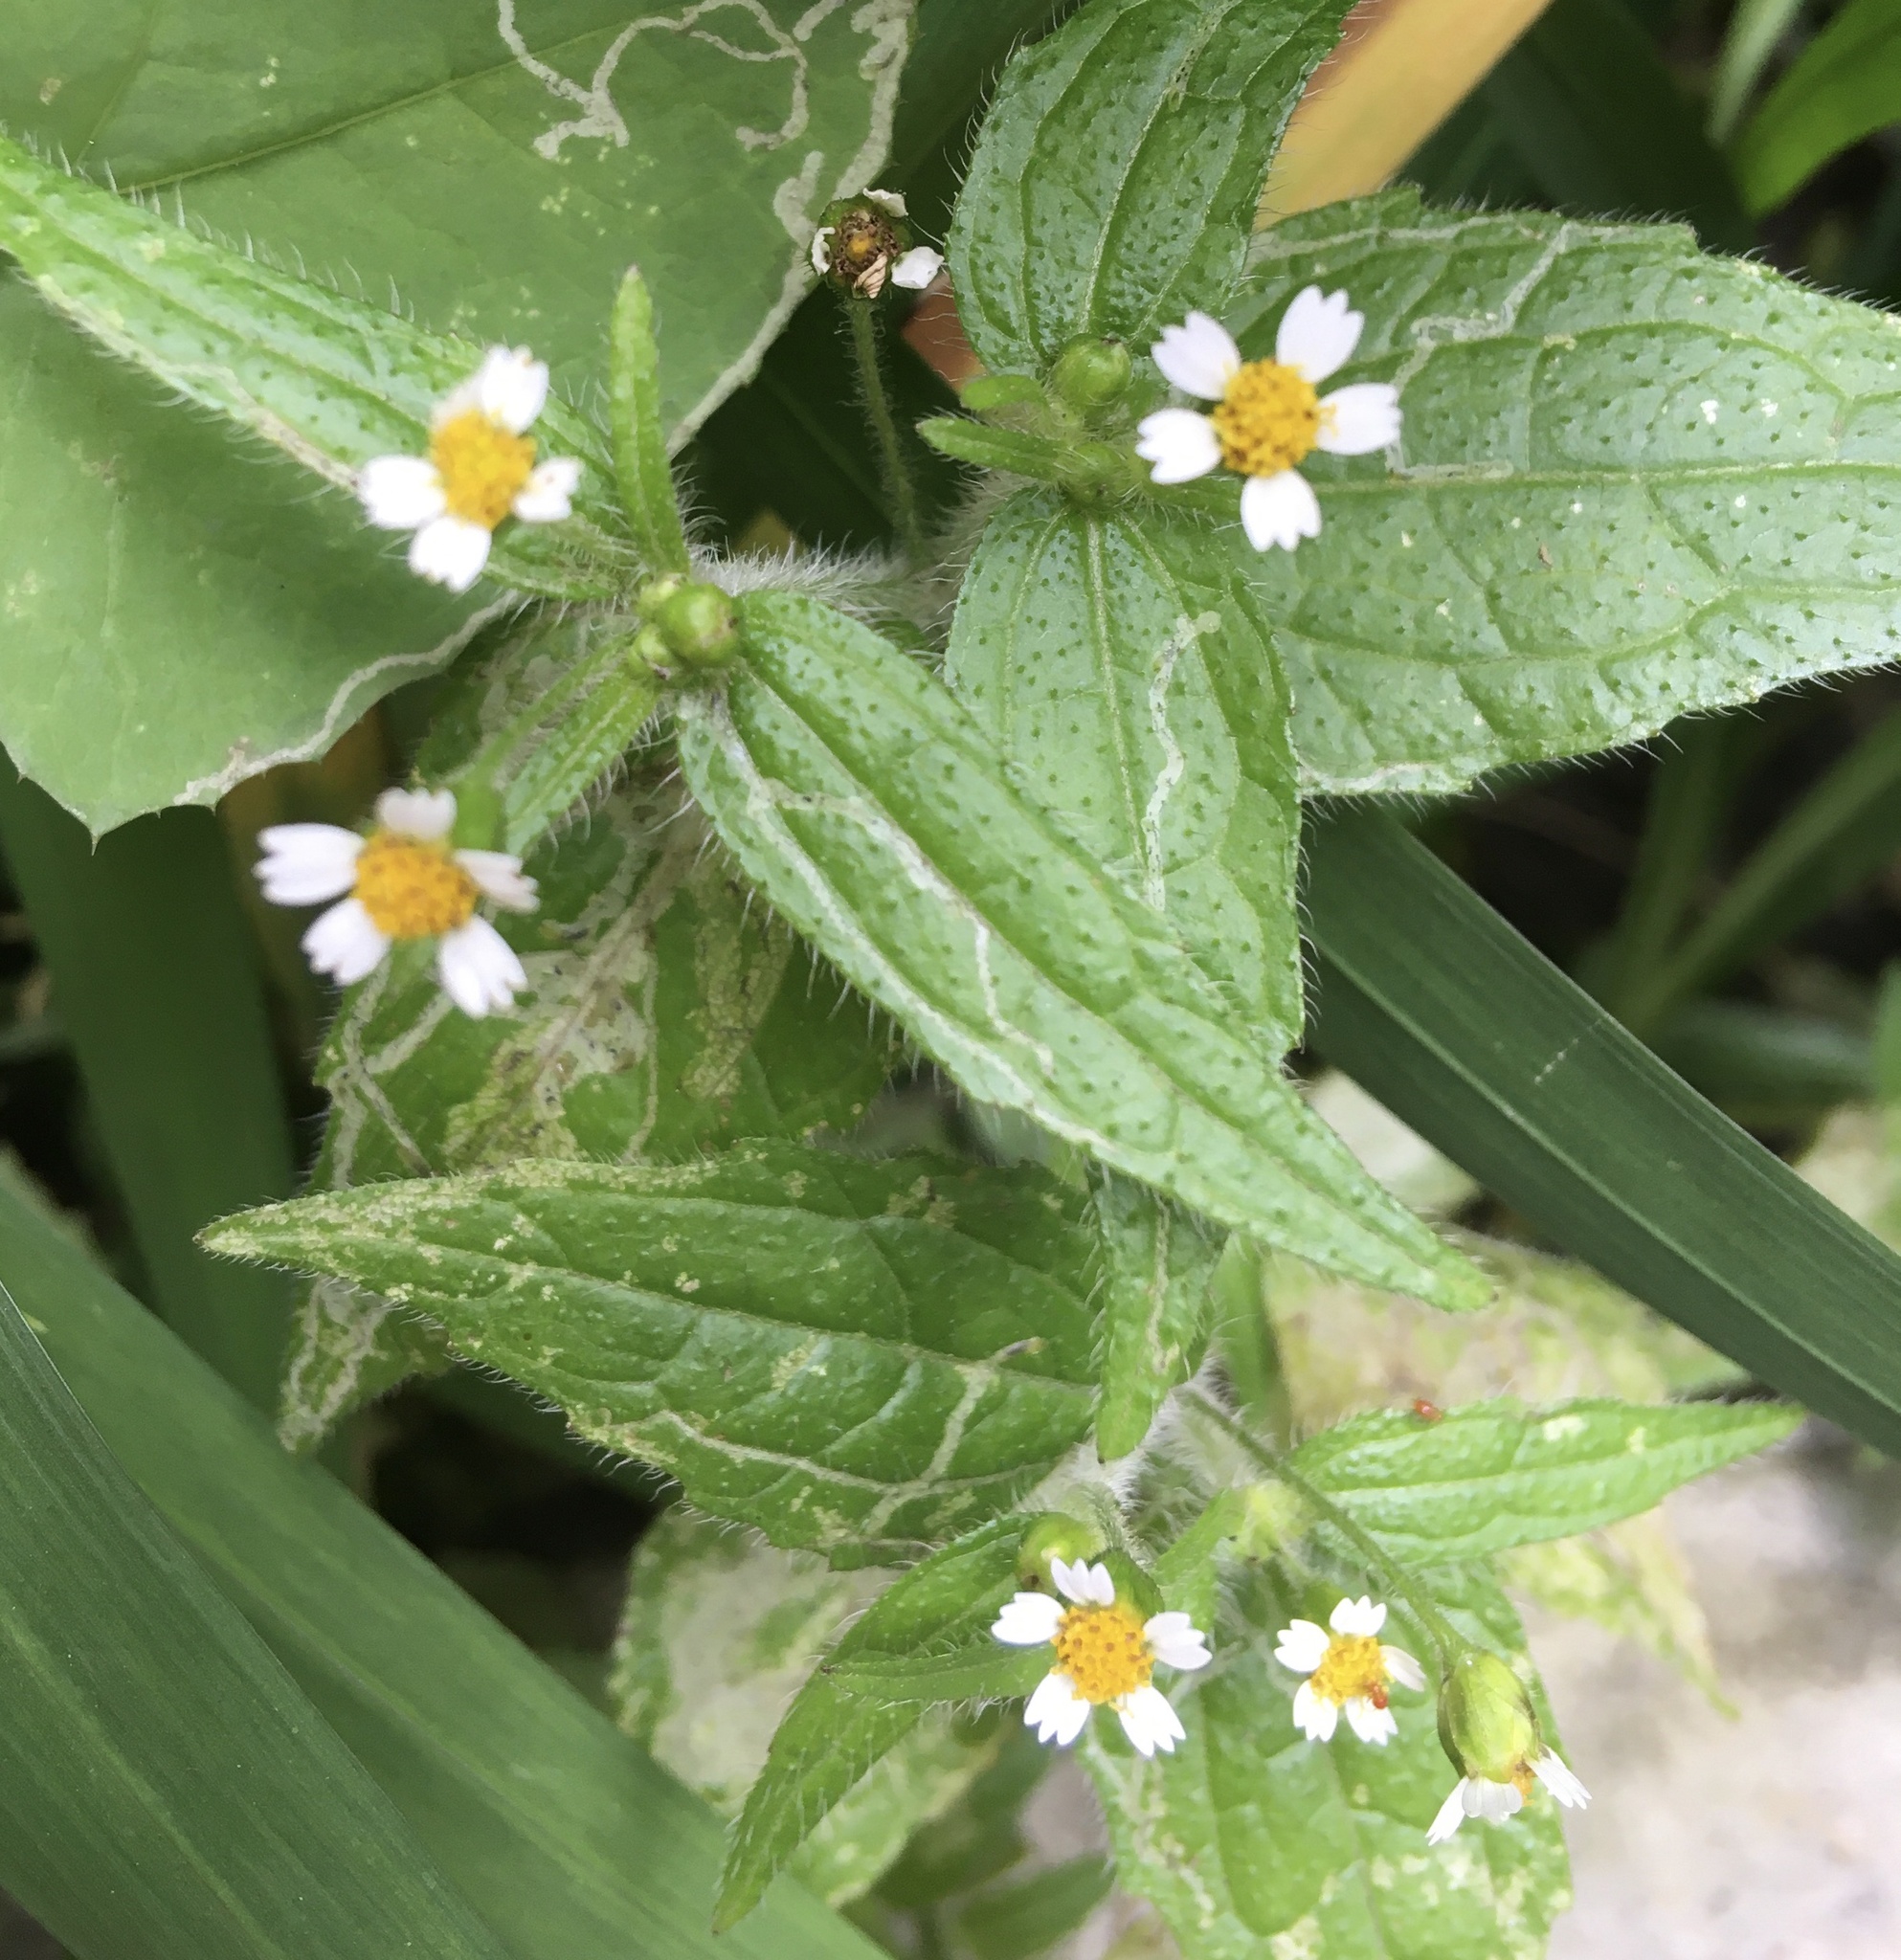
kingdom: Plantae
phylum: Tracheophyta
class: Magnoliopsida
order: Asterales
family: Asteraceae
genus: Galinsoga
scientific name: Galinsoga quadriradiata
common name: Shaggy soldier
